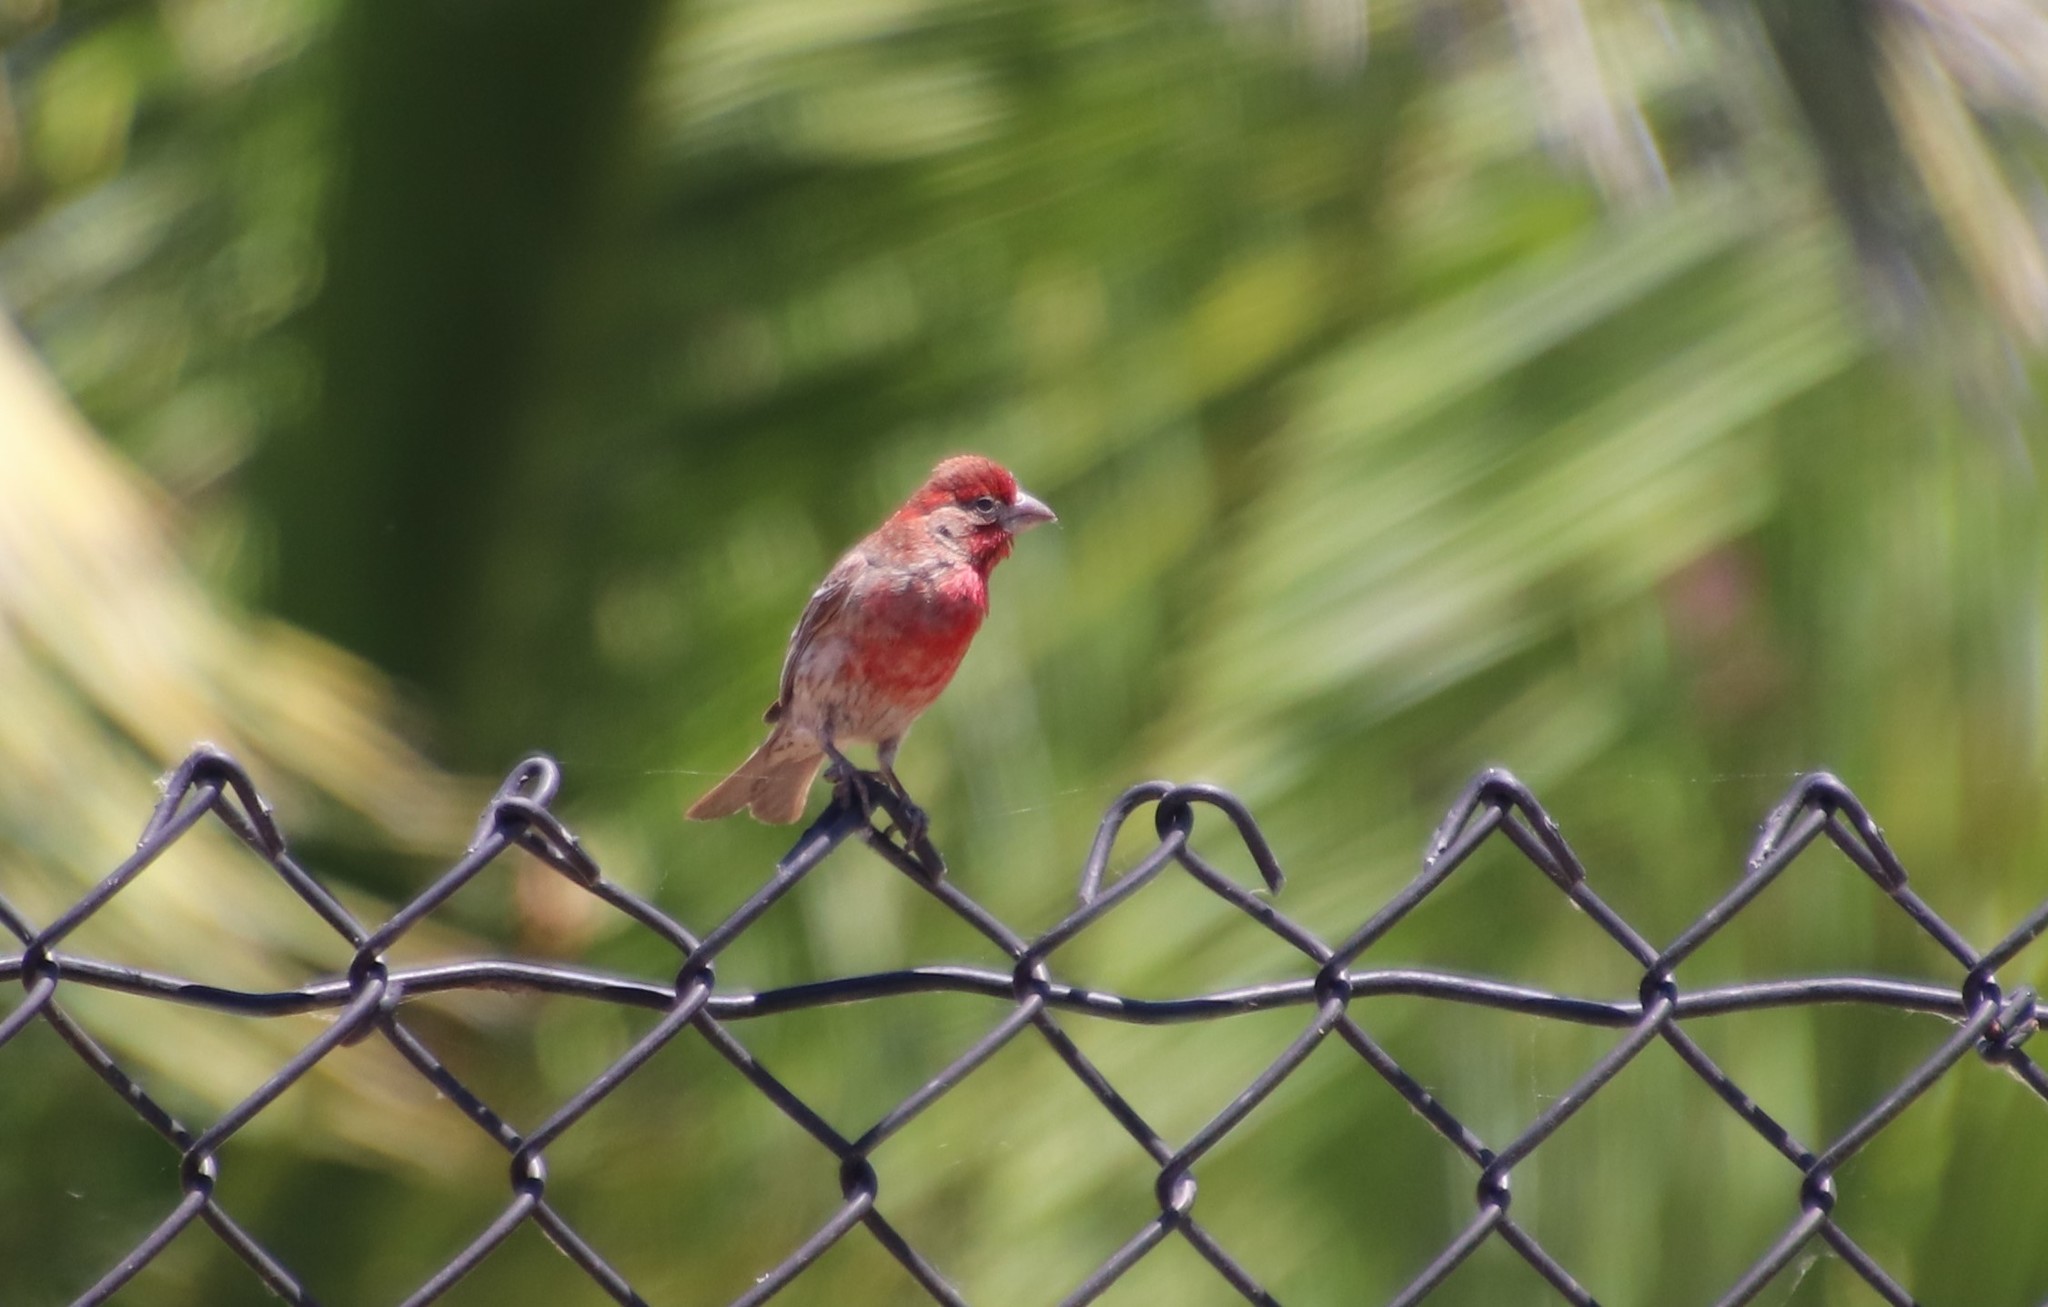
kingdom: Animalia
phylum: Chordata
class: Aves
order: Passeriformes
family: Fringillidae
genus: Haemorhous
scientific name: Haemorhous mexicanus
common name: House finch
